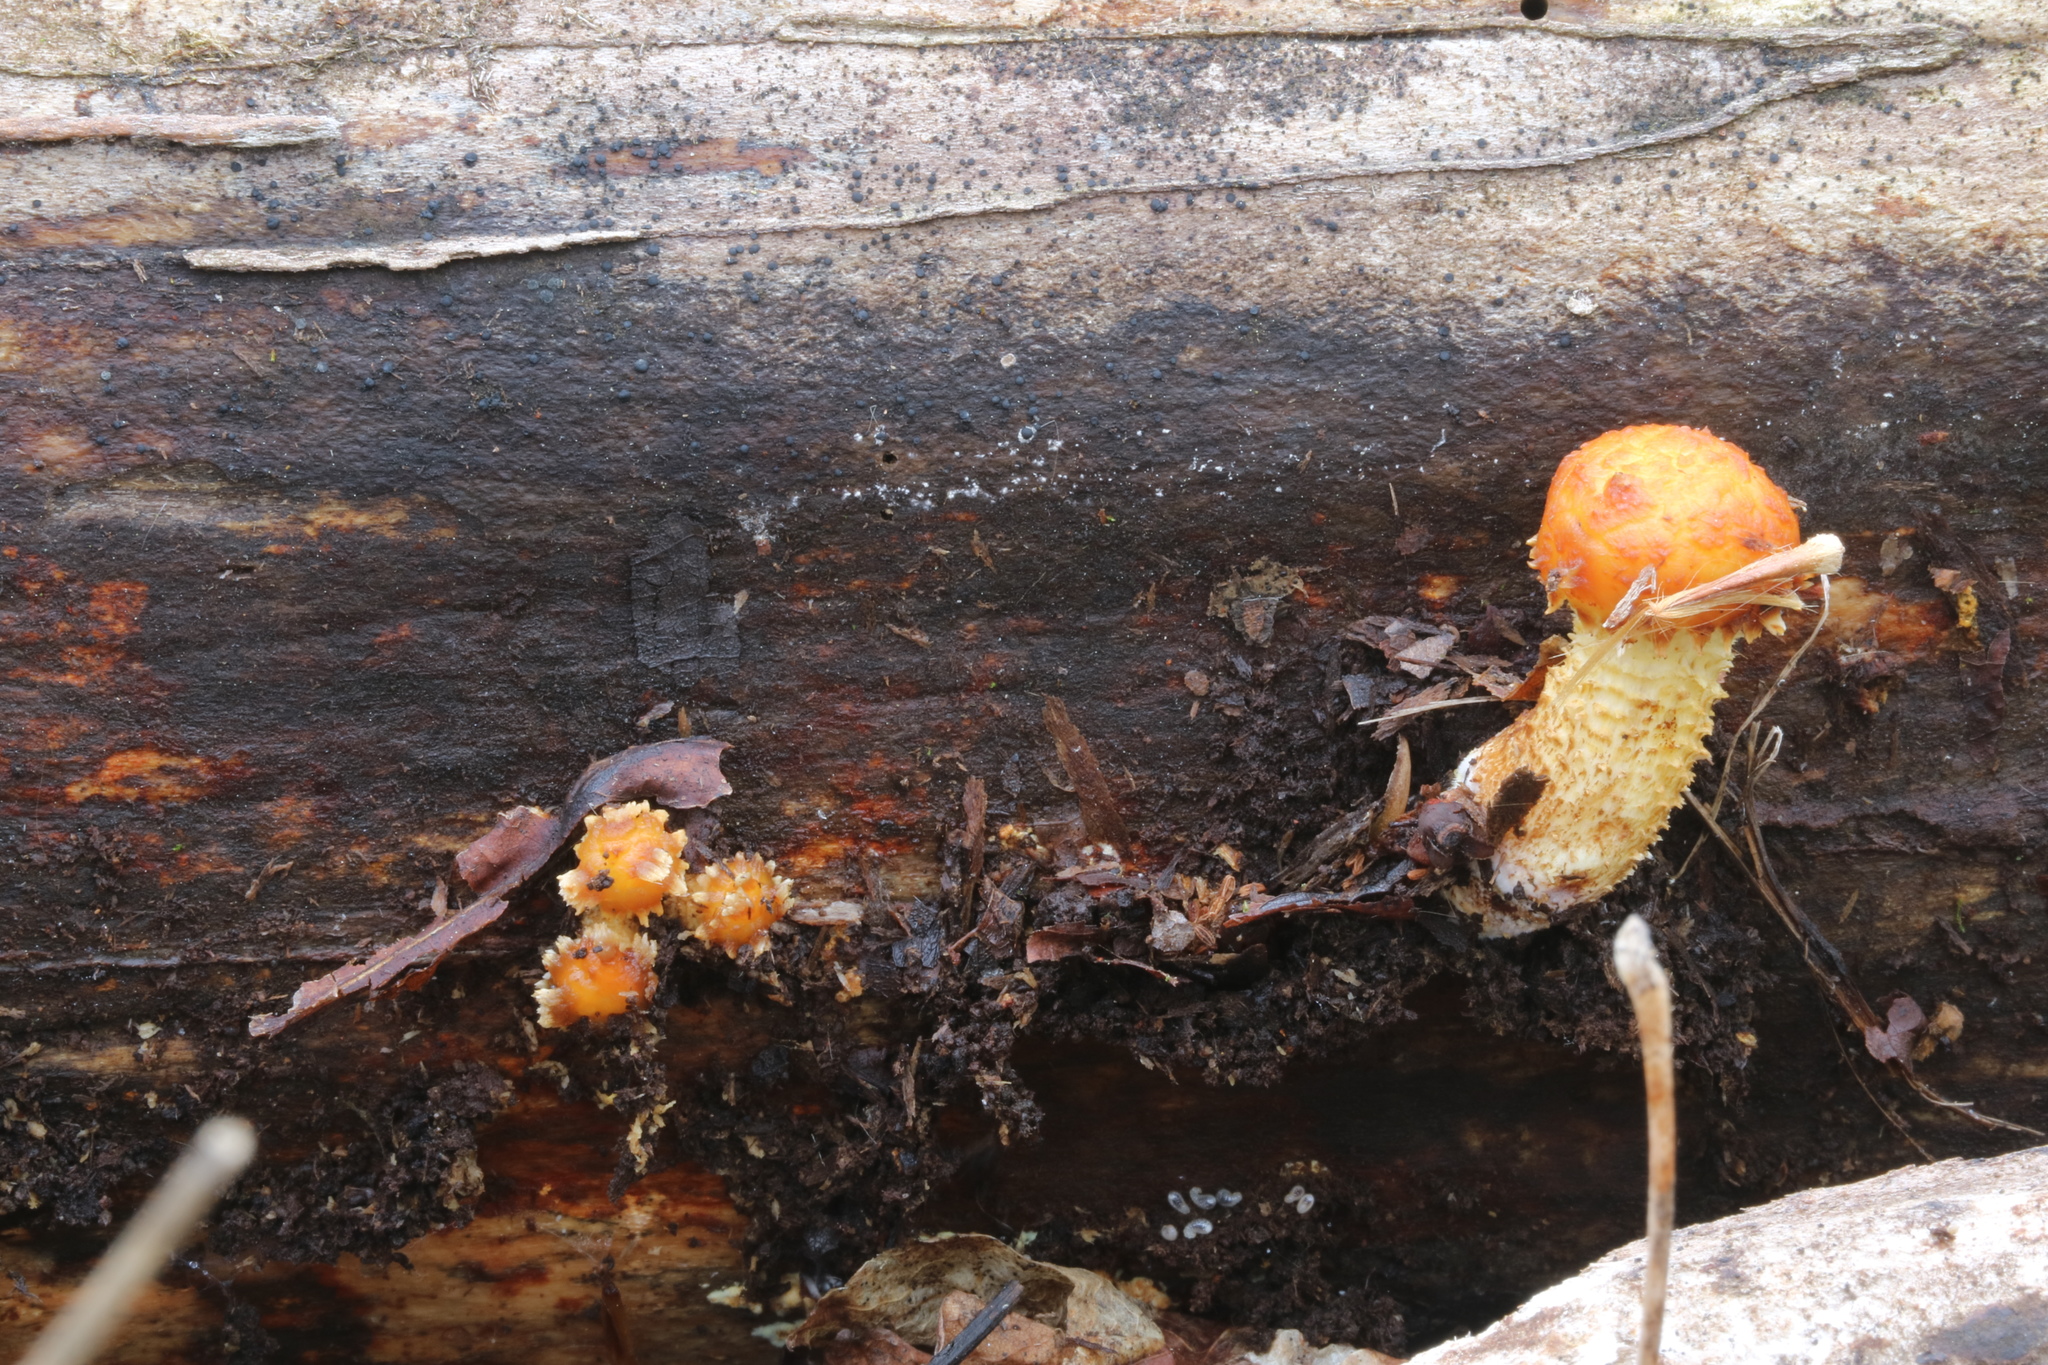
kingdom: Fungi
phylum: Basidiomycota
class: Agaricomycetes
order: Agaricales
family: Strophariaceae
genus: Pholiota
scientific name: Pholiota limonella
